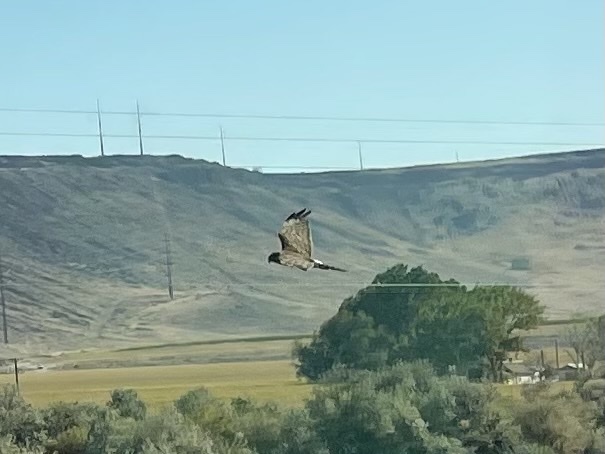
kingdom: Animalia
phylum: Chordata
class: Aves
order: Accipitriformes
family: Accipitridae
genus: Circus
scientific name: Circus cyaneus
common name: Hen harrier
